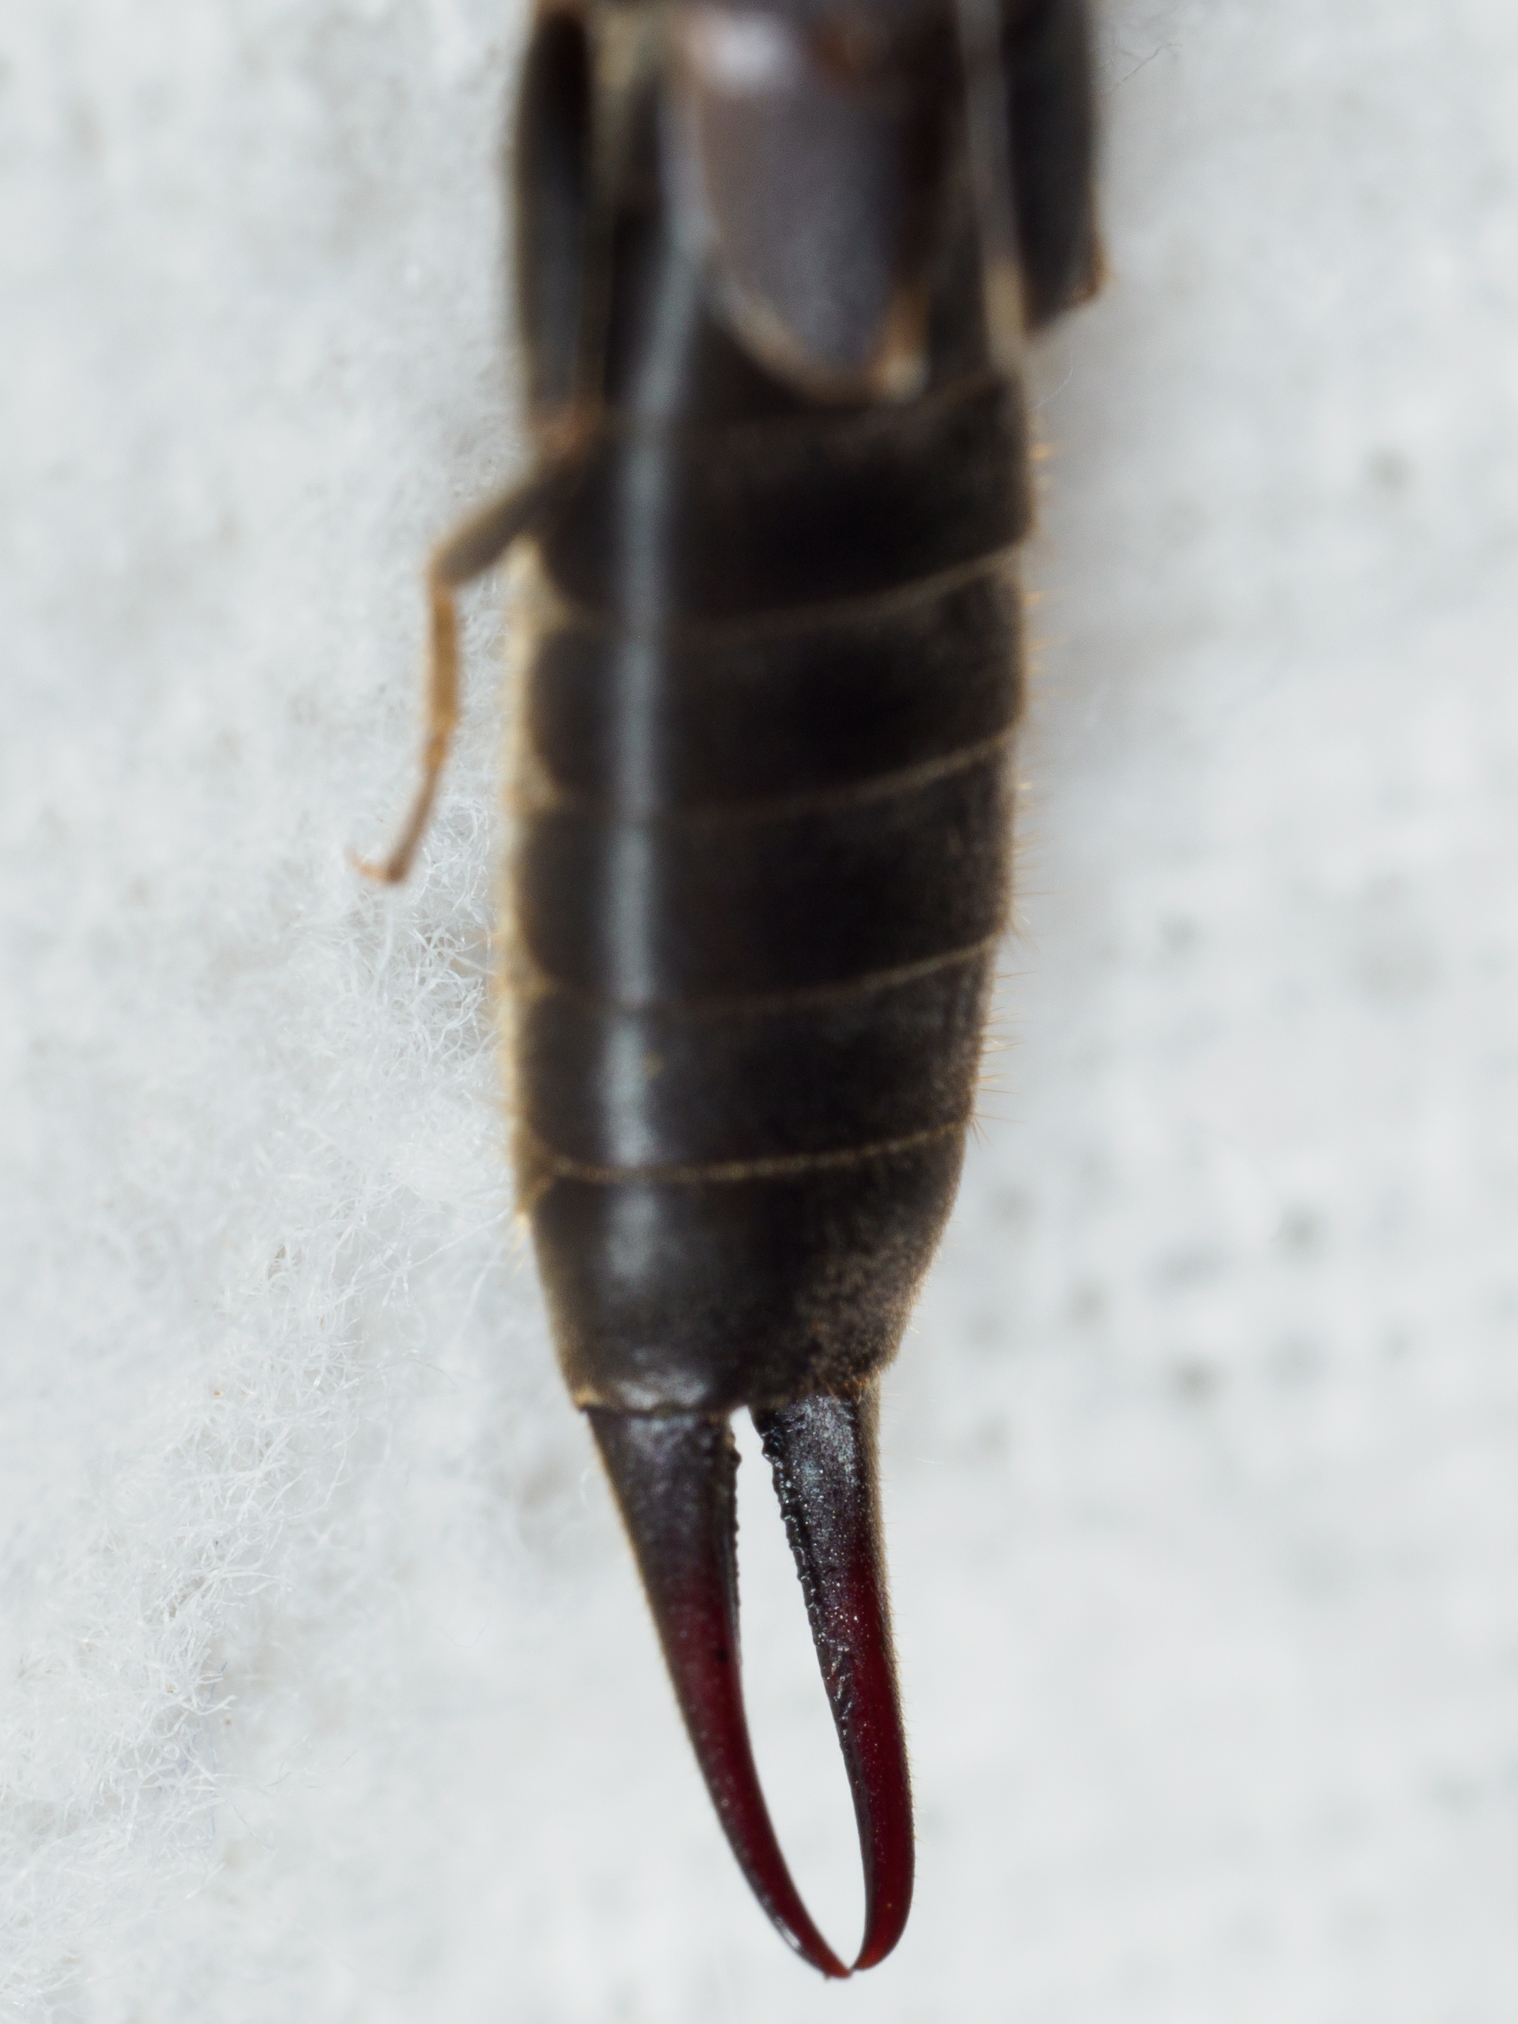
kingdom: Animalia
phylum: Arthropoda
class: Insecta
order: Dermaptera
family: Labiduridae
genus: Nala
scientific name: Nala lividipes
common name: Earwig
